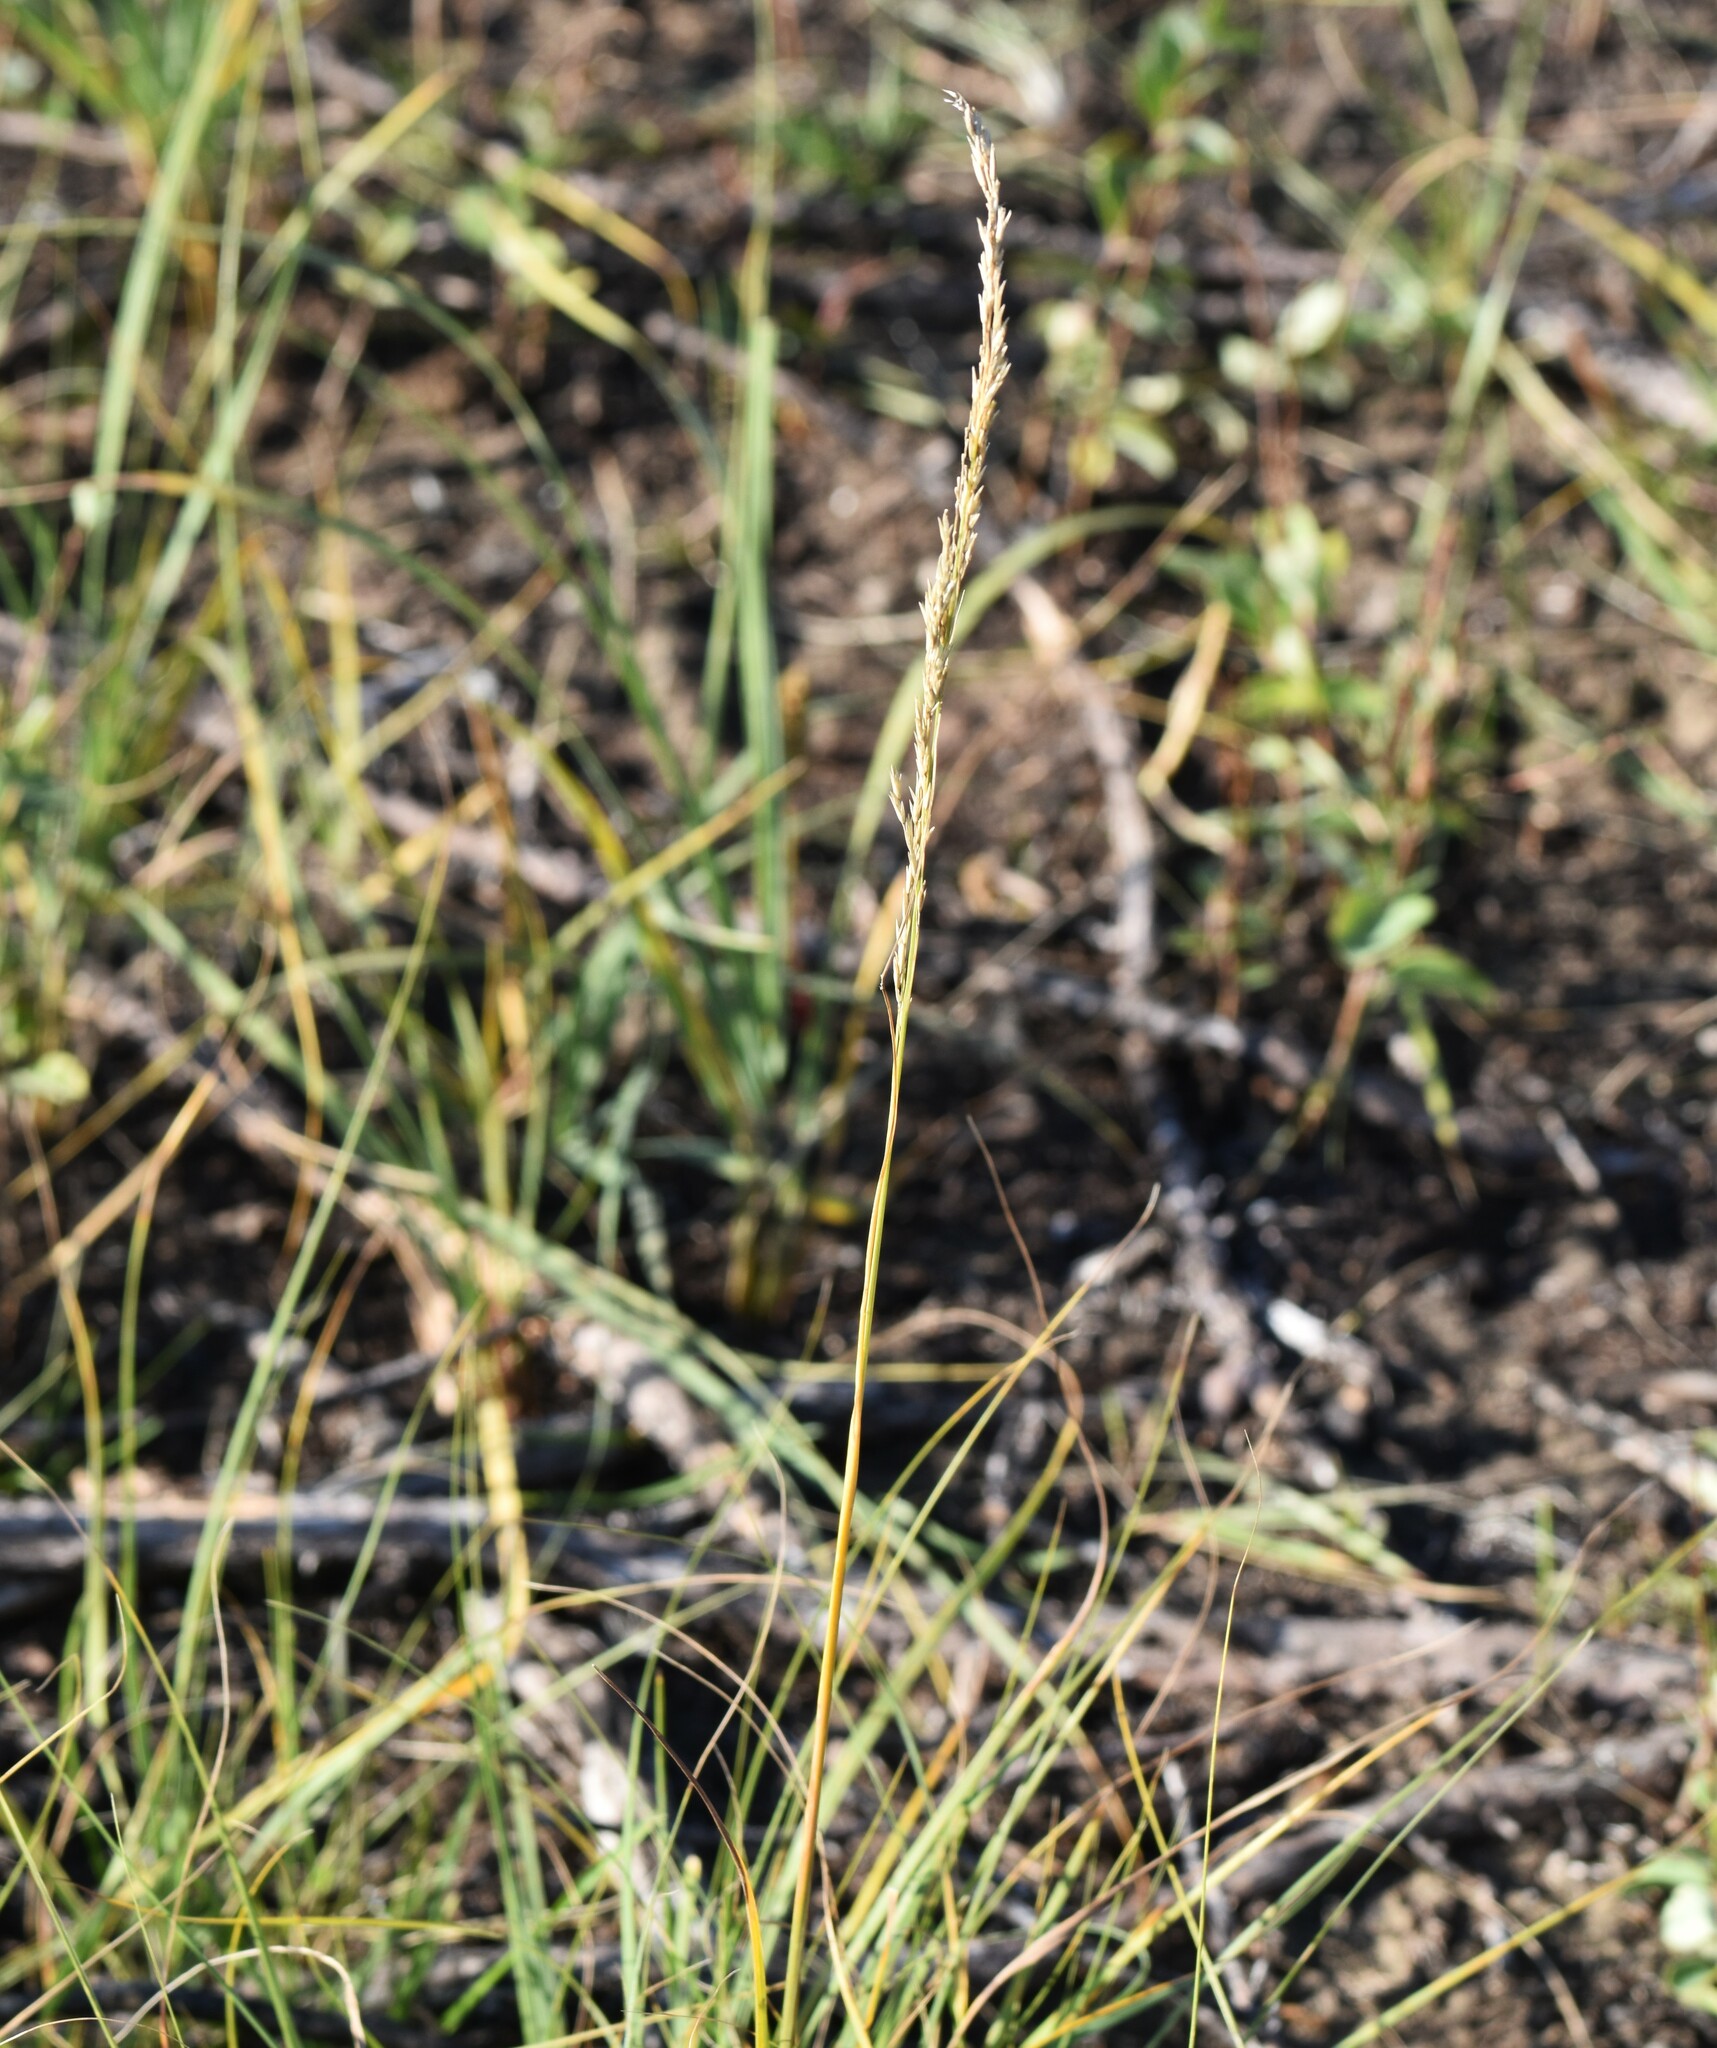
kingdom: Plantae
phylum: Tracheophyta
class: Liliopsida
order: Poales
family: Poaceae
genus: Sporobolus
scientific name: Sporobolus rigidus
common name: Prairie sandreed
